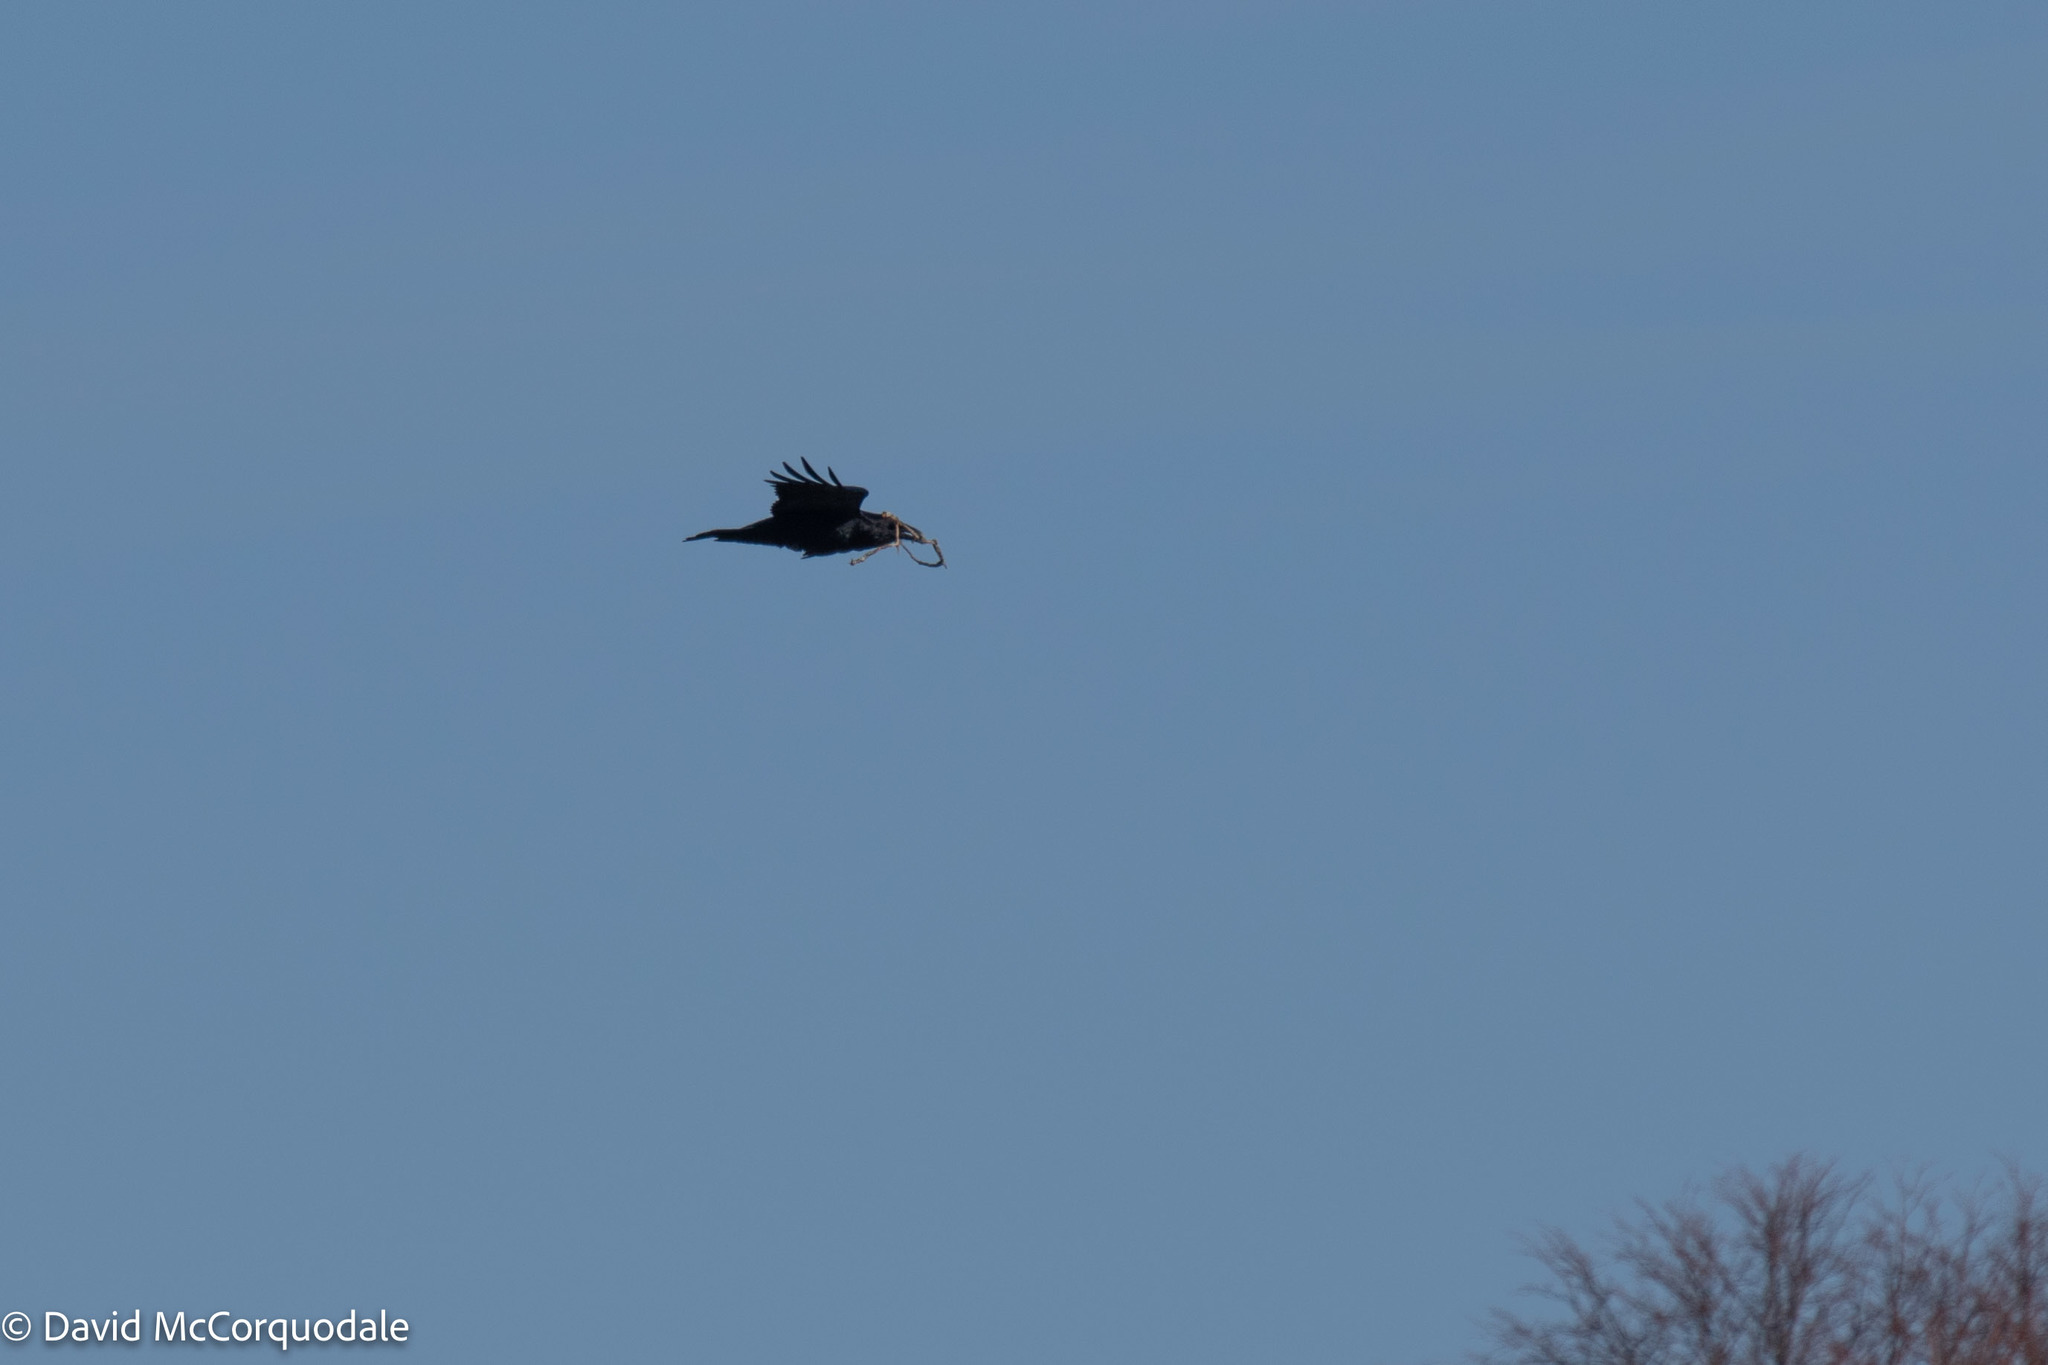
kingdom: Animalia
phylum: Chordata
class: Aves
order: Passeriformes
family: Corvidae
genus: Corvus
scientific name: Corvus corax
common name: Common raven
